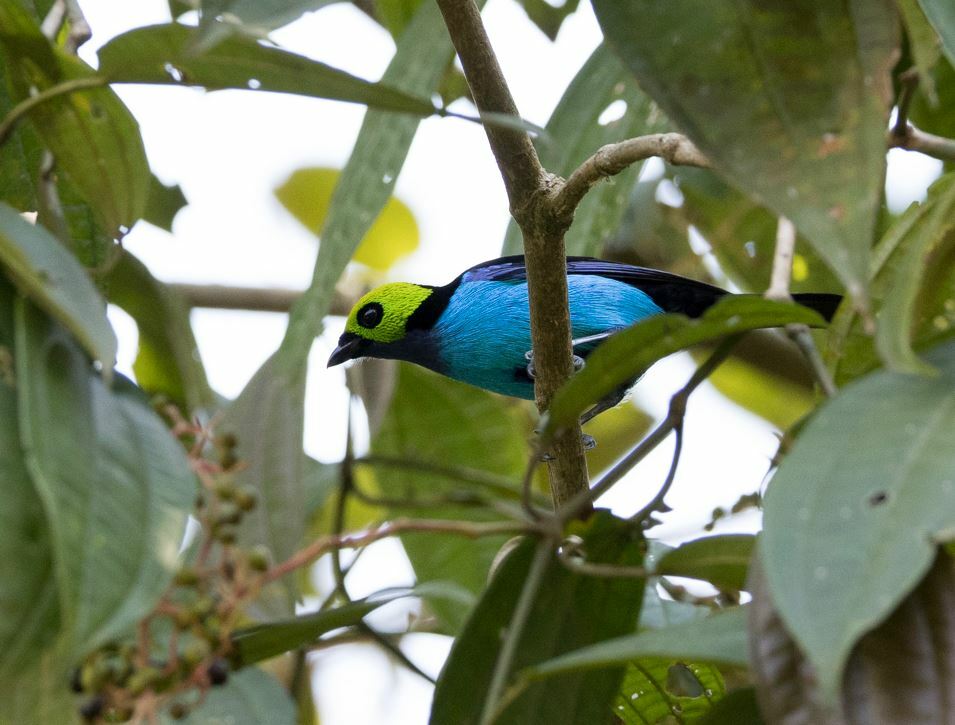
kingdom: Animalia
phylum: Chordata
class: Aves
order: Passeriformes
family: Thraupidae
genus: Tangara
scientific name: Tangara chilensis
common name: Paradise tanager
